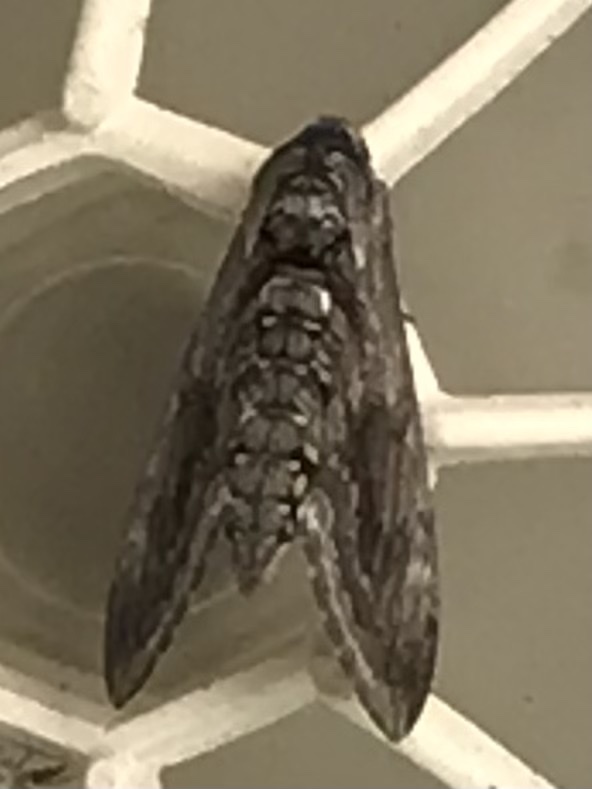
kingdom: Animalia
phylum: Arthropoda
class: Insecta
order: Lepidoptera
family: Sphingidae
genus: Manduca
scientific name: Manduca quinquemaculatus
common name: Five-spotted hawk-moth
